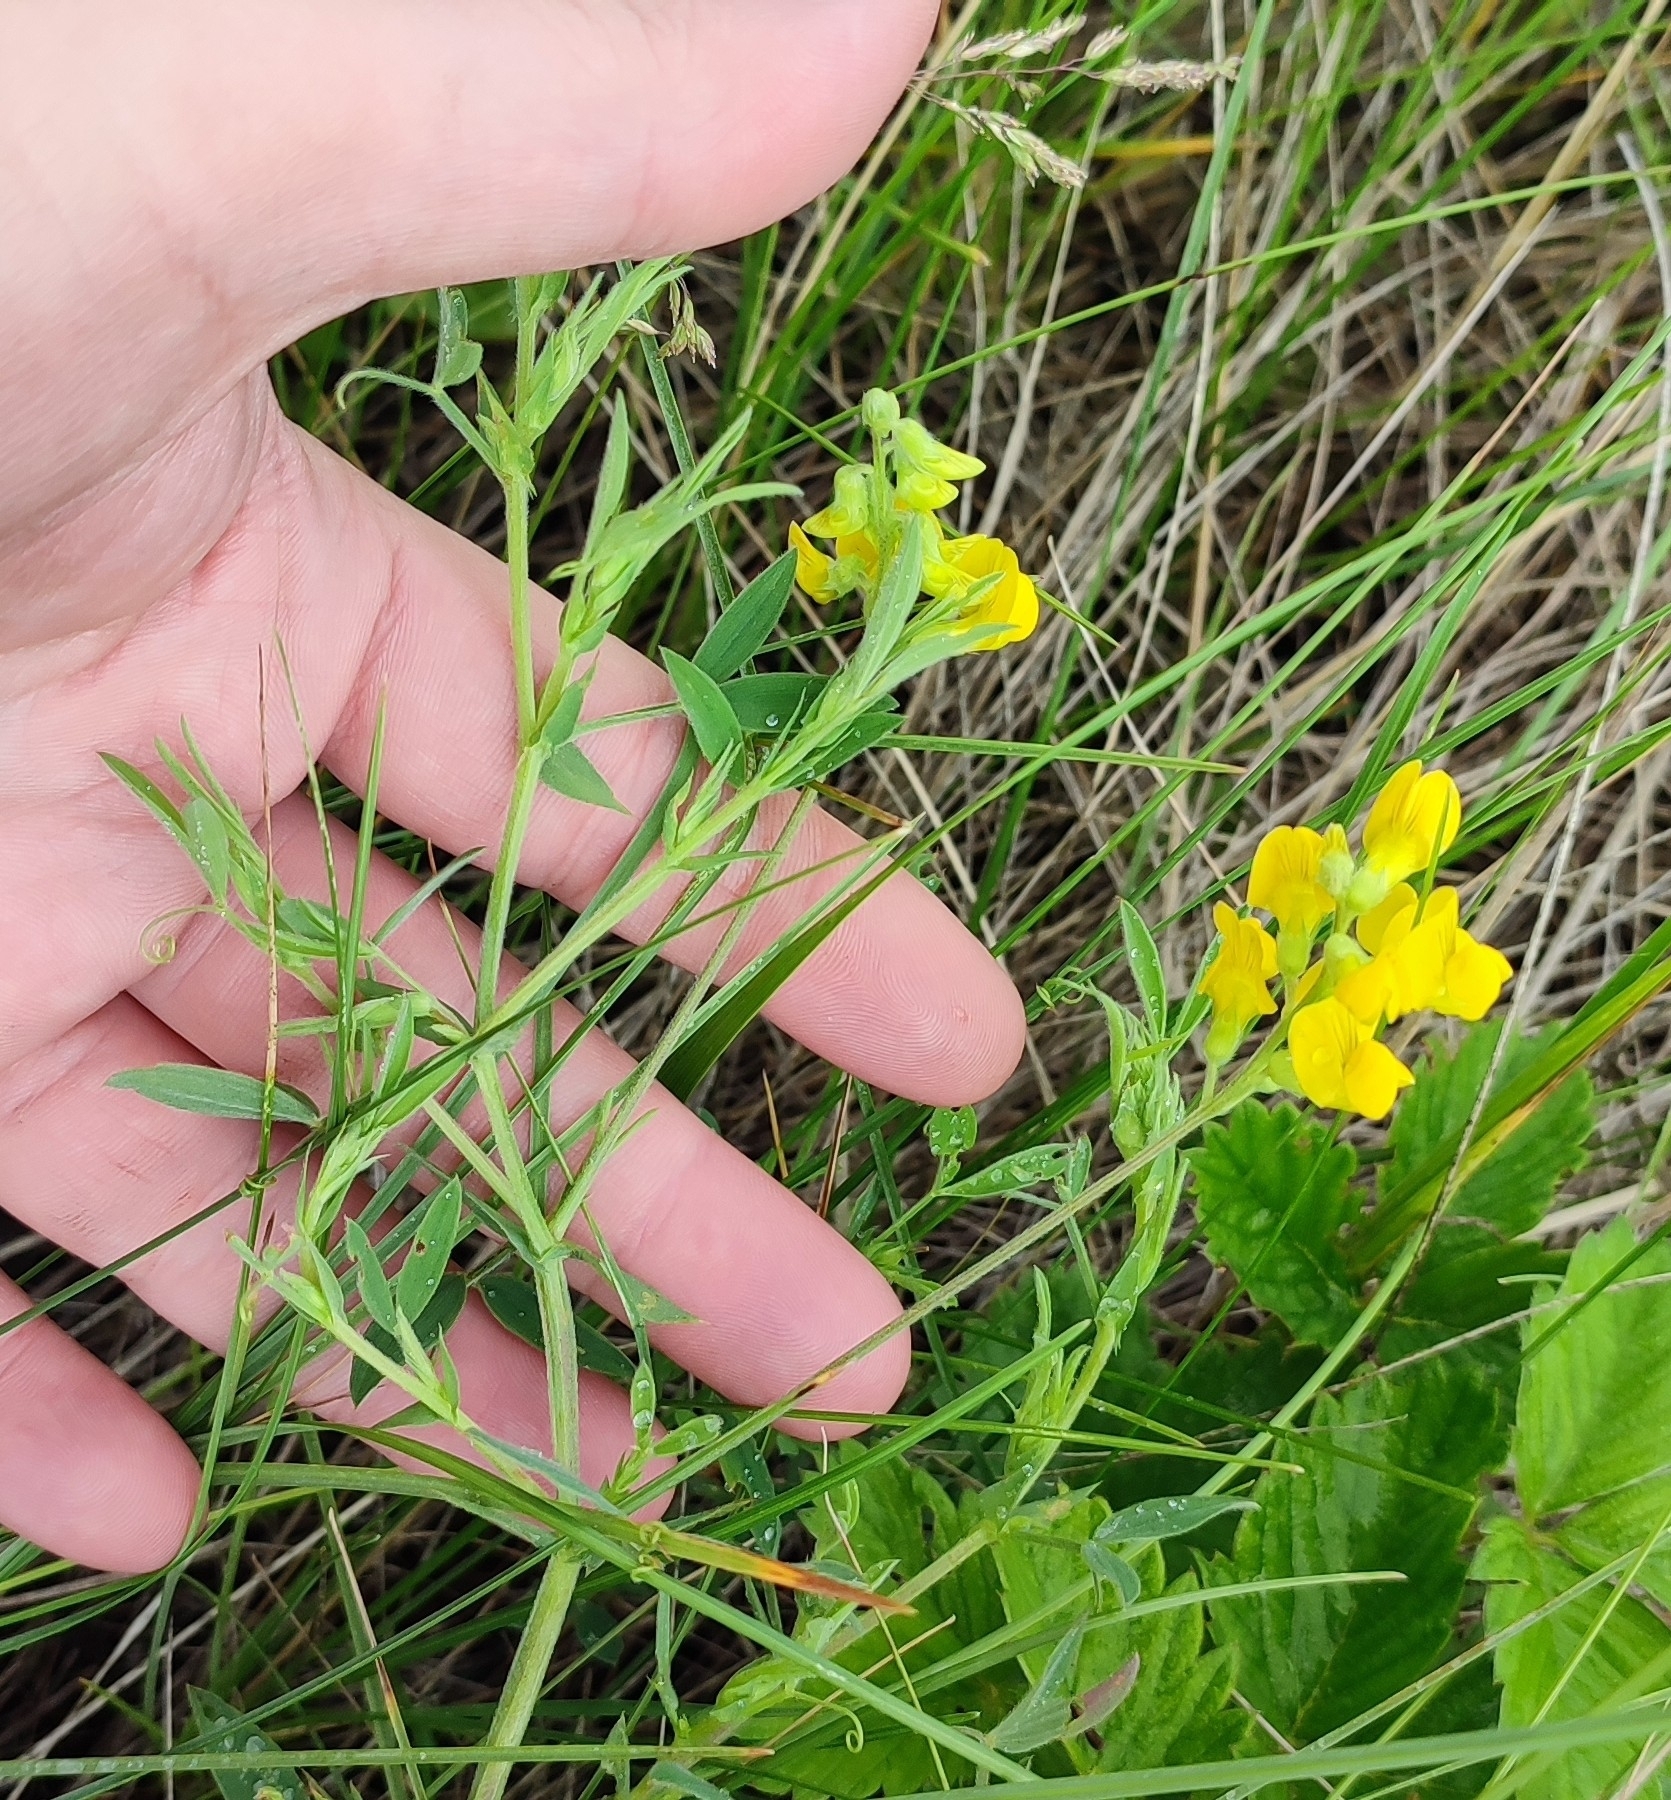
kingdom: Plantae
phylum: Tracheophyta
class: Magnoliopsida
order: Fabales
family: Fabaceae
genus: Lathyrus
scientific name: Lathyrus pratensis
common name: Meadow vetchling
